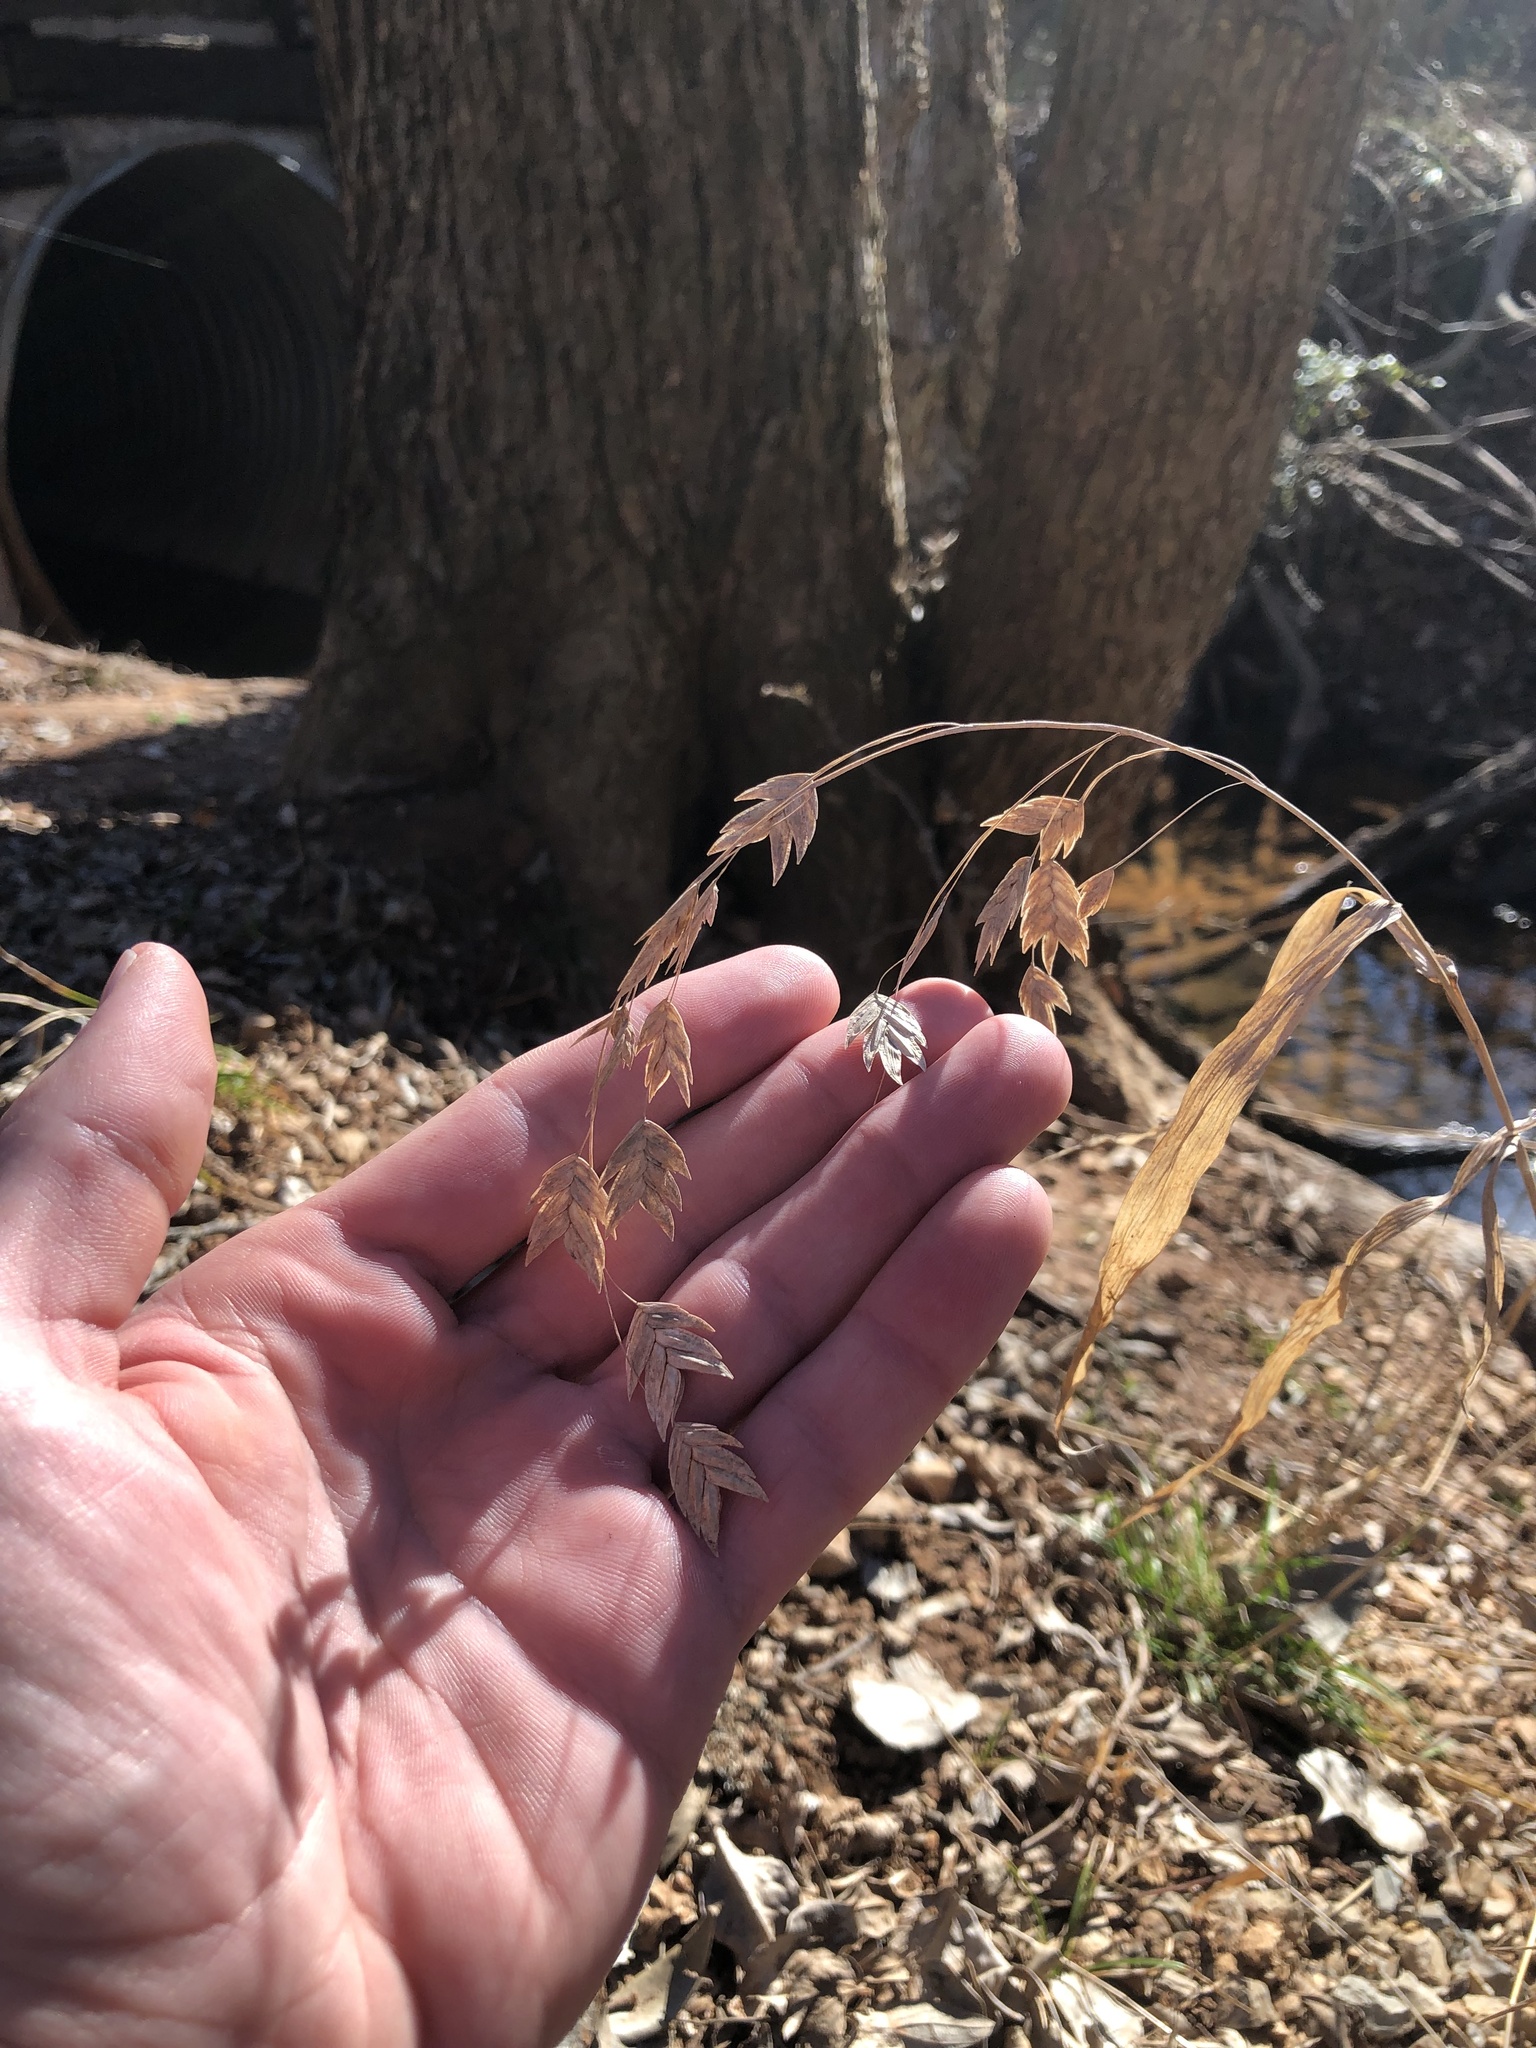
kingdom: Plantae
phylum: Tracheophyta
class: Liliopsida
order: Poales
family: Poaceae
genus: Chasmanthium
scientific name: Chasmanthium latifolium
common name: Broad-leaved chasmanthium
